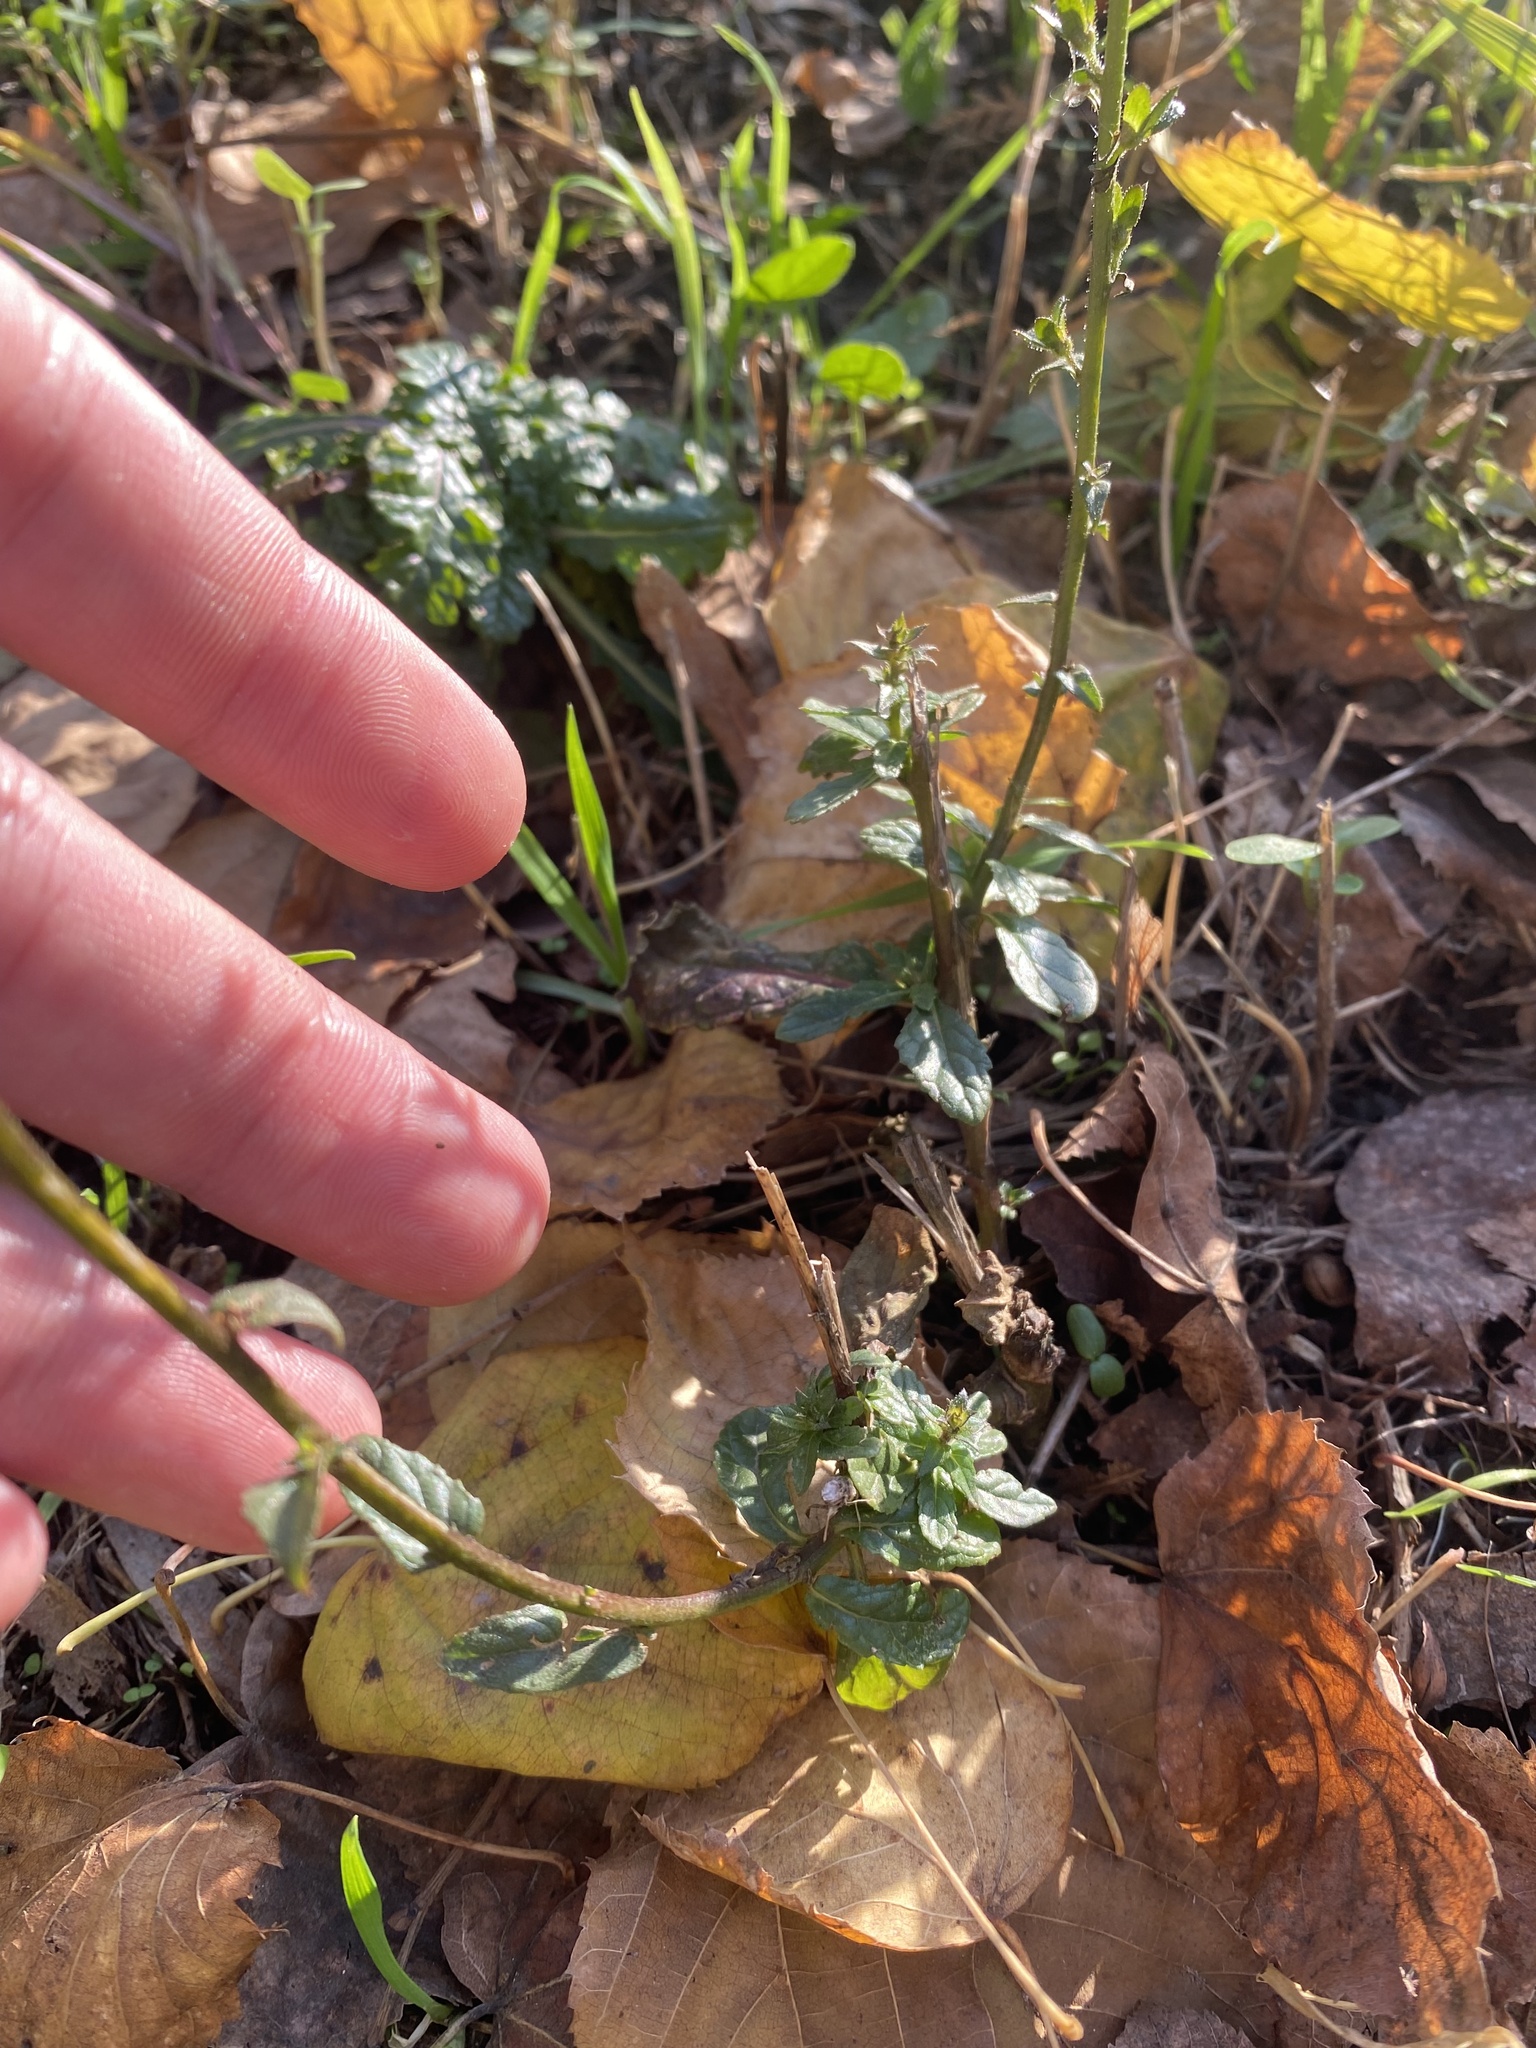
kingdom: Plantae
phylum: Tracheophyta
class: Magnoliopsida
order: Lamiales
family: Scrophulariaceae
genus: Verbascum
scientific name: Verbascum blattaria
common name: Moth mullein
